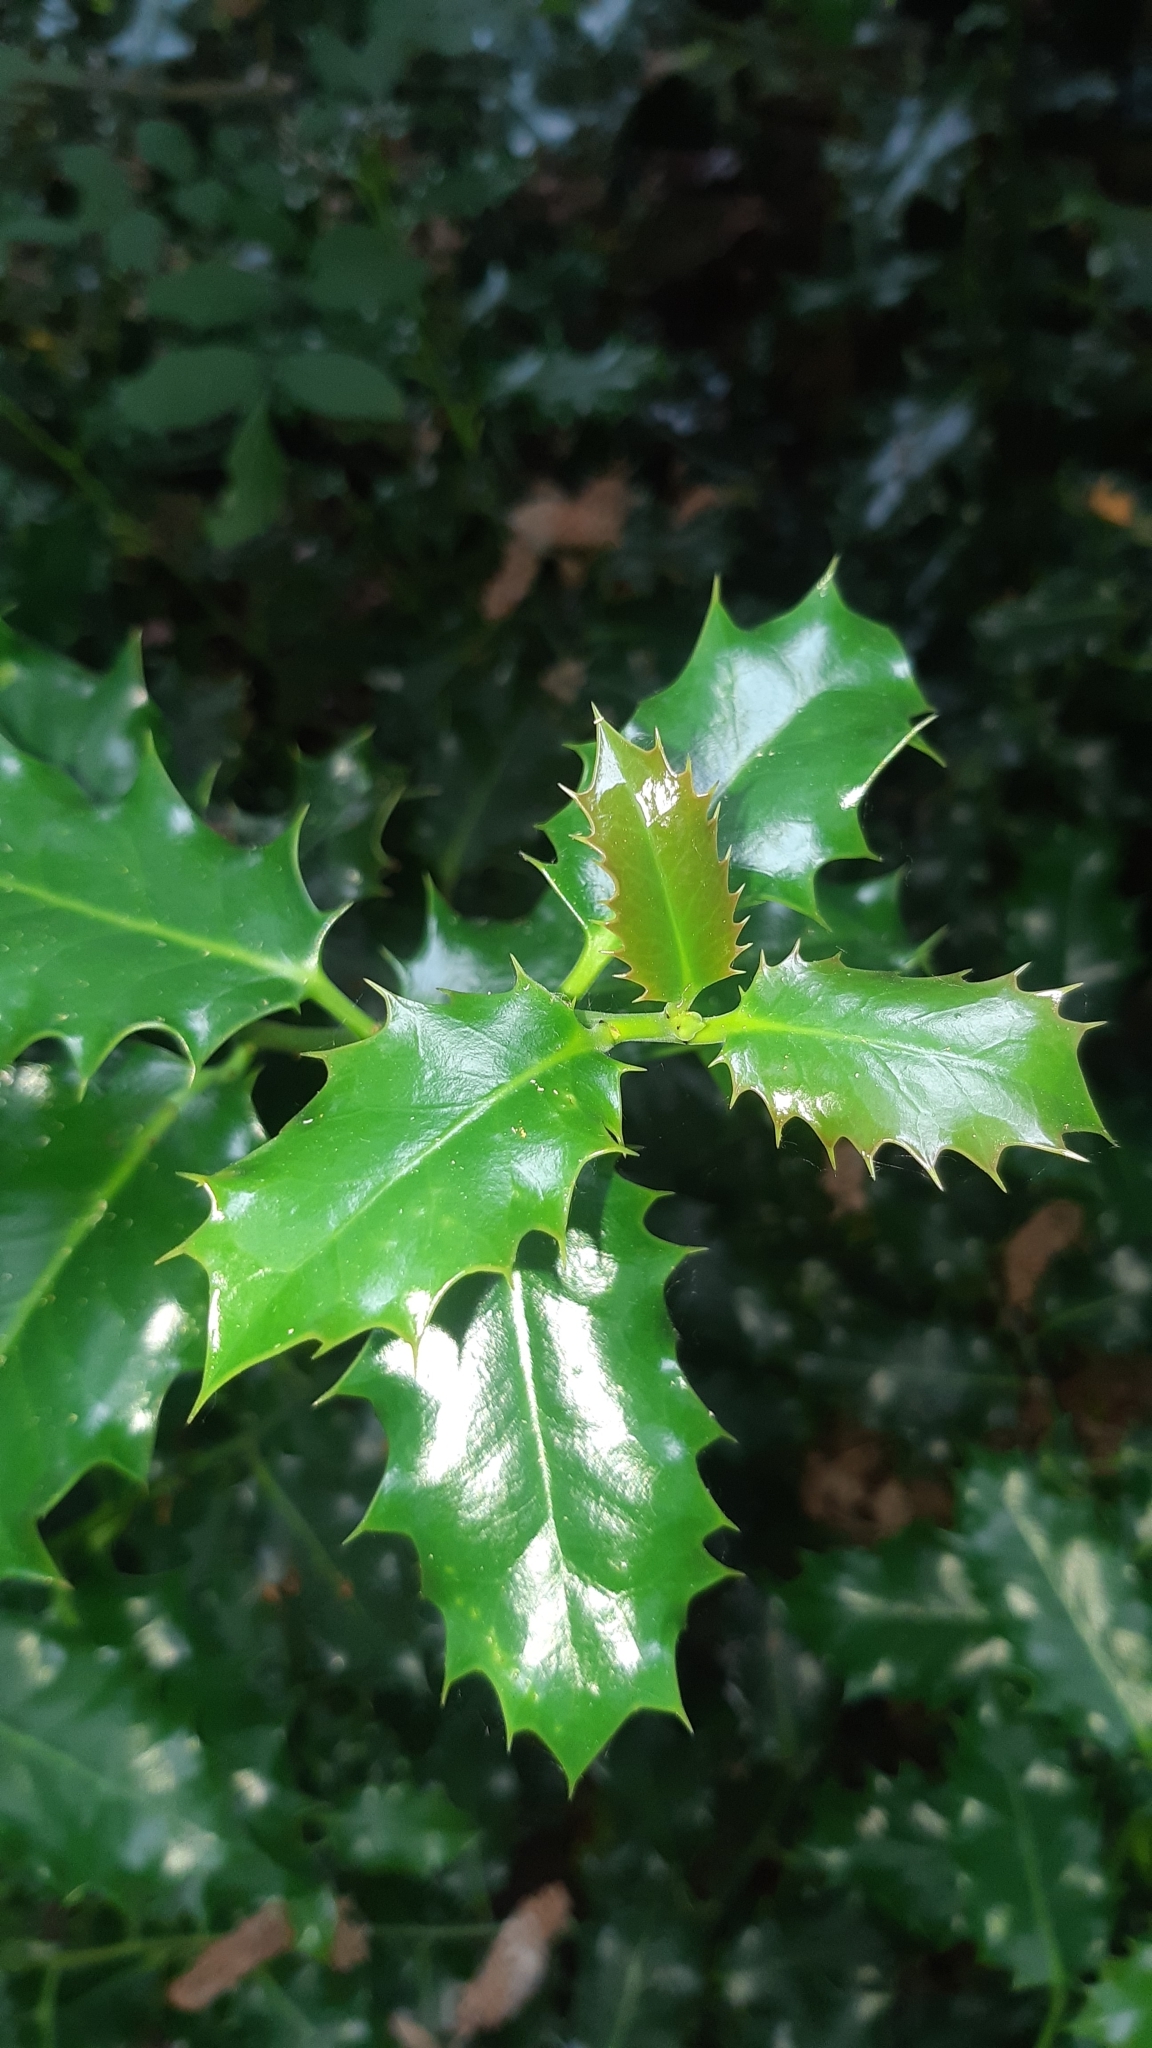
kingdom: Plantae
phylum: Tracheophyta
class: Magnoliopsida
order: Aquifoliales
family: Aquifoliaceae
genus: Ilex
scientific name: Ilex aquifolium
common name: English holly
